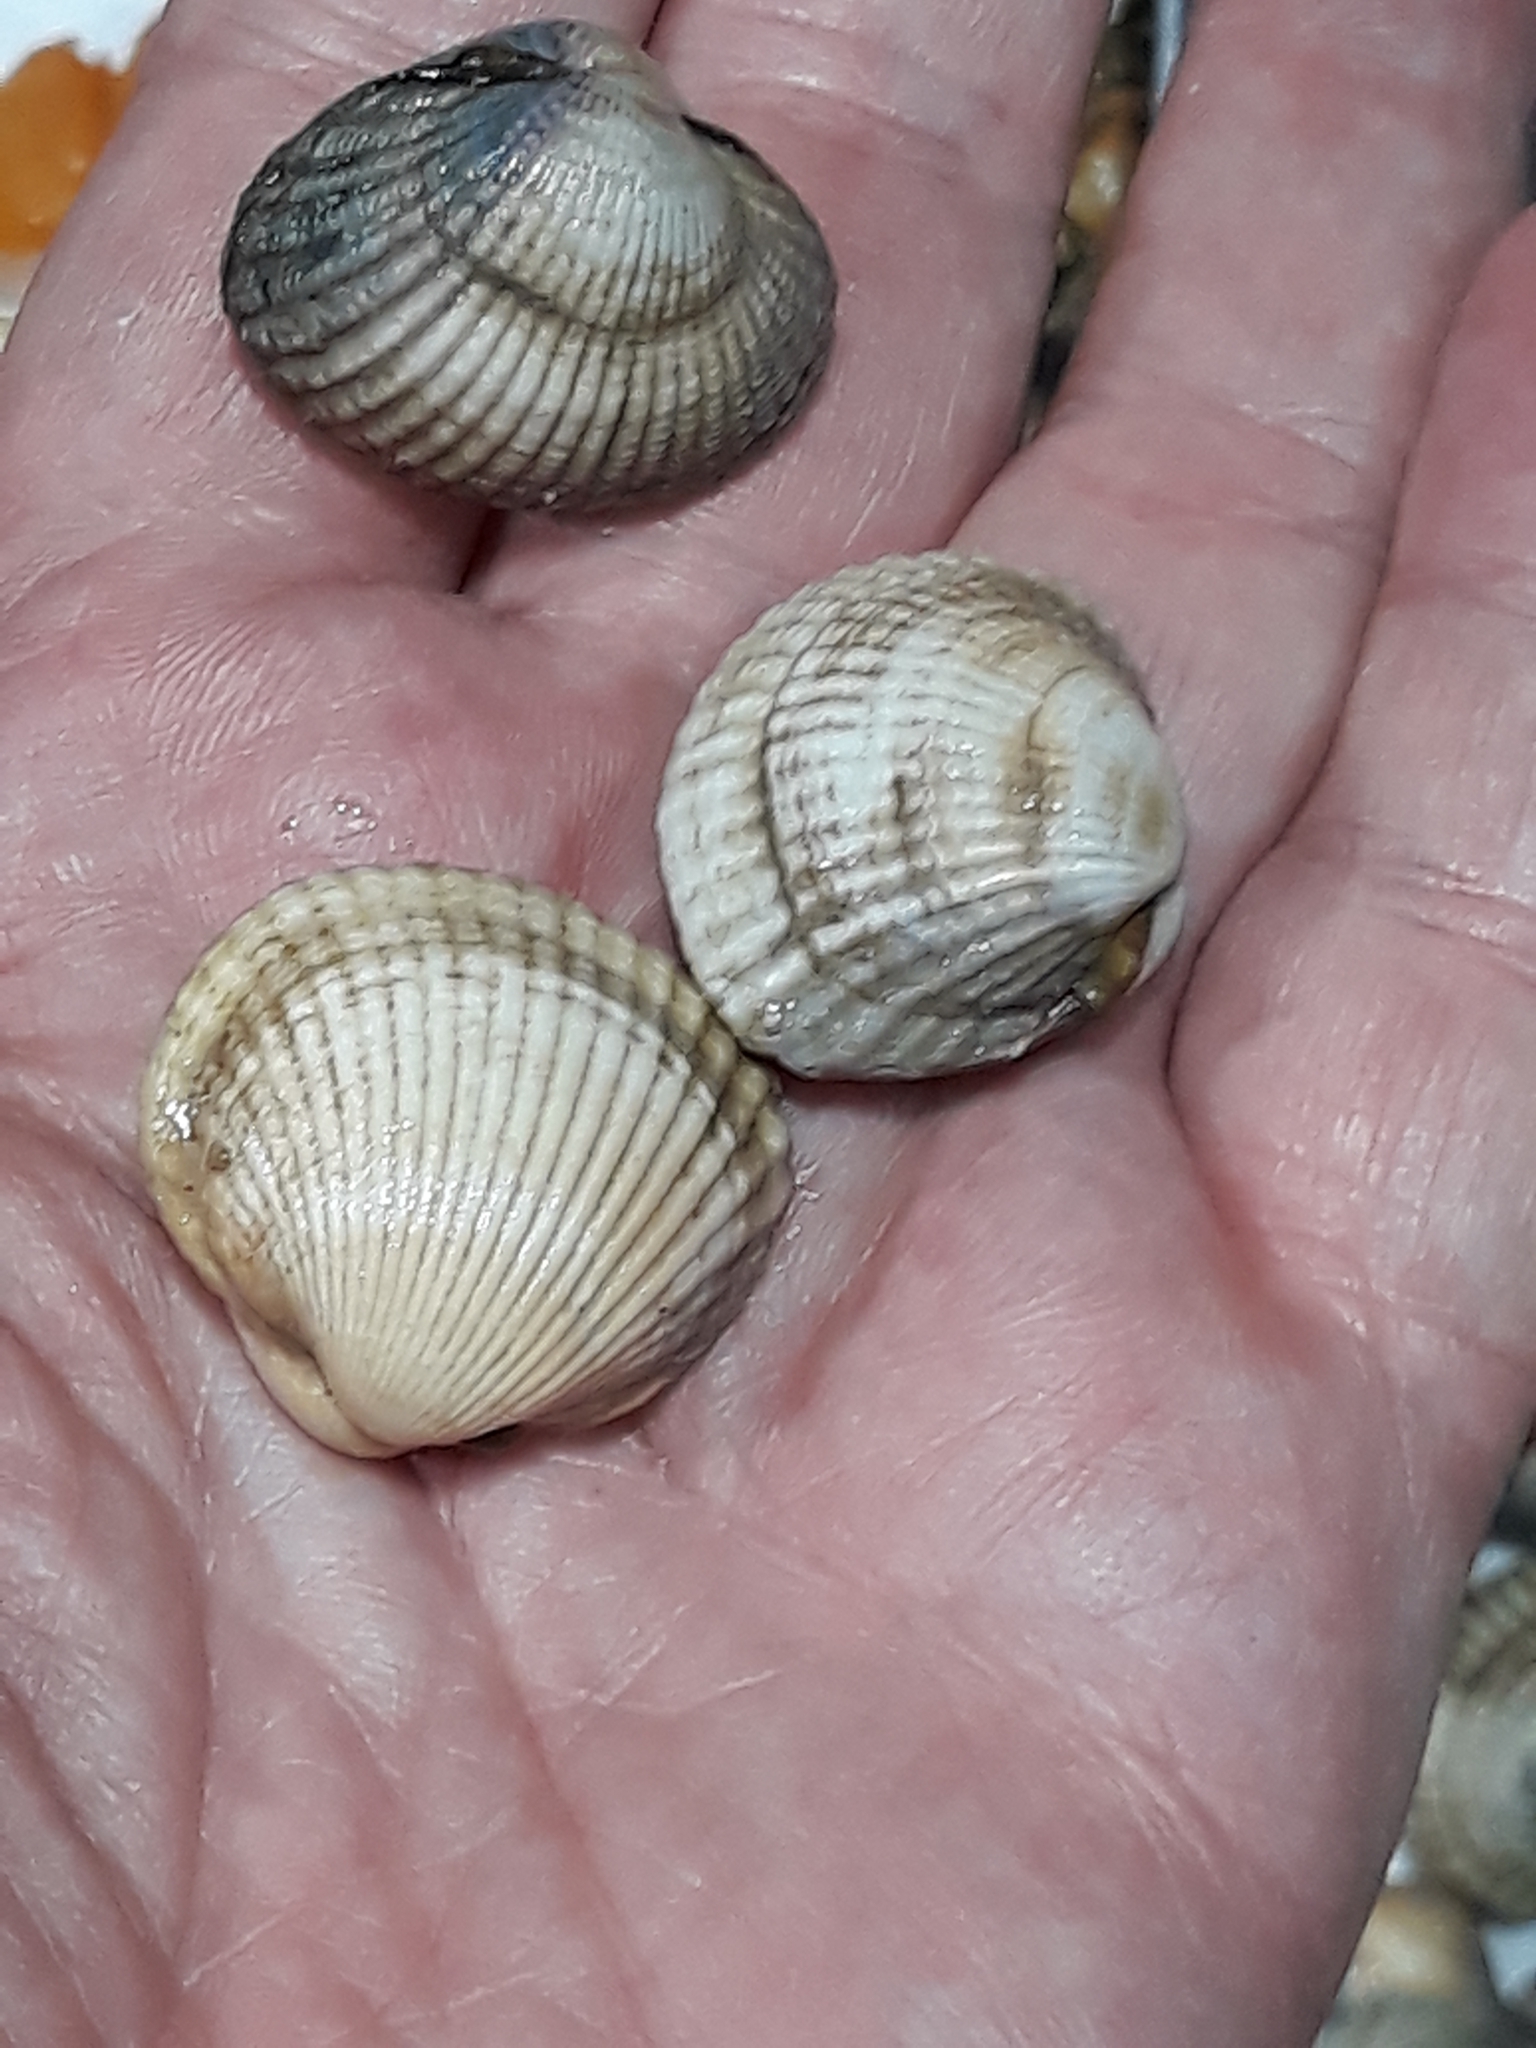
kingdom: Animalia
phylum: Mollusca
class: Bivalvia
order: Cardiida
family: Cardiidae
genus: Cerastoderma
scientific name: Cerastoderma edule
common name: Common cockle
